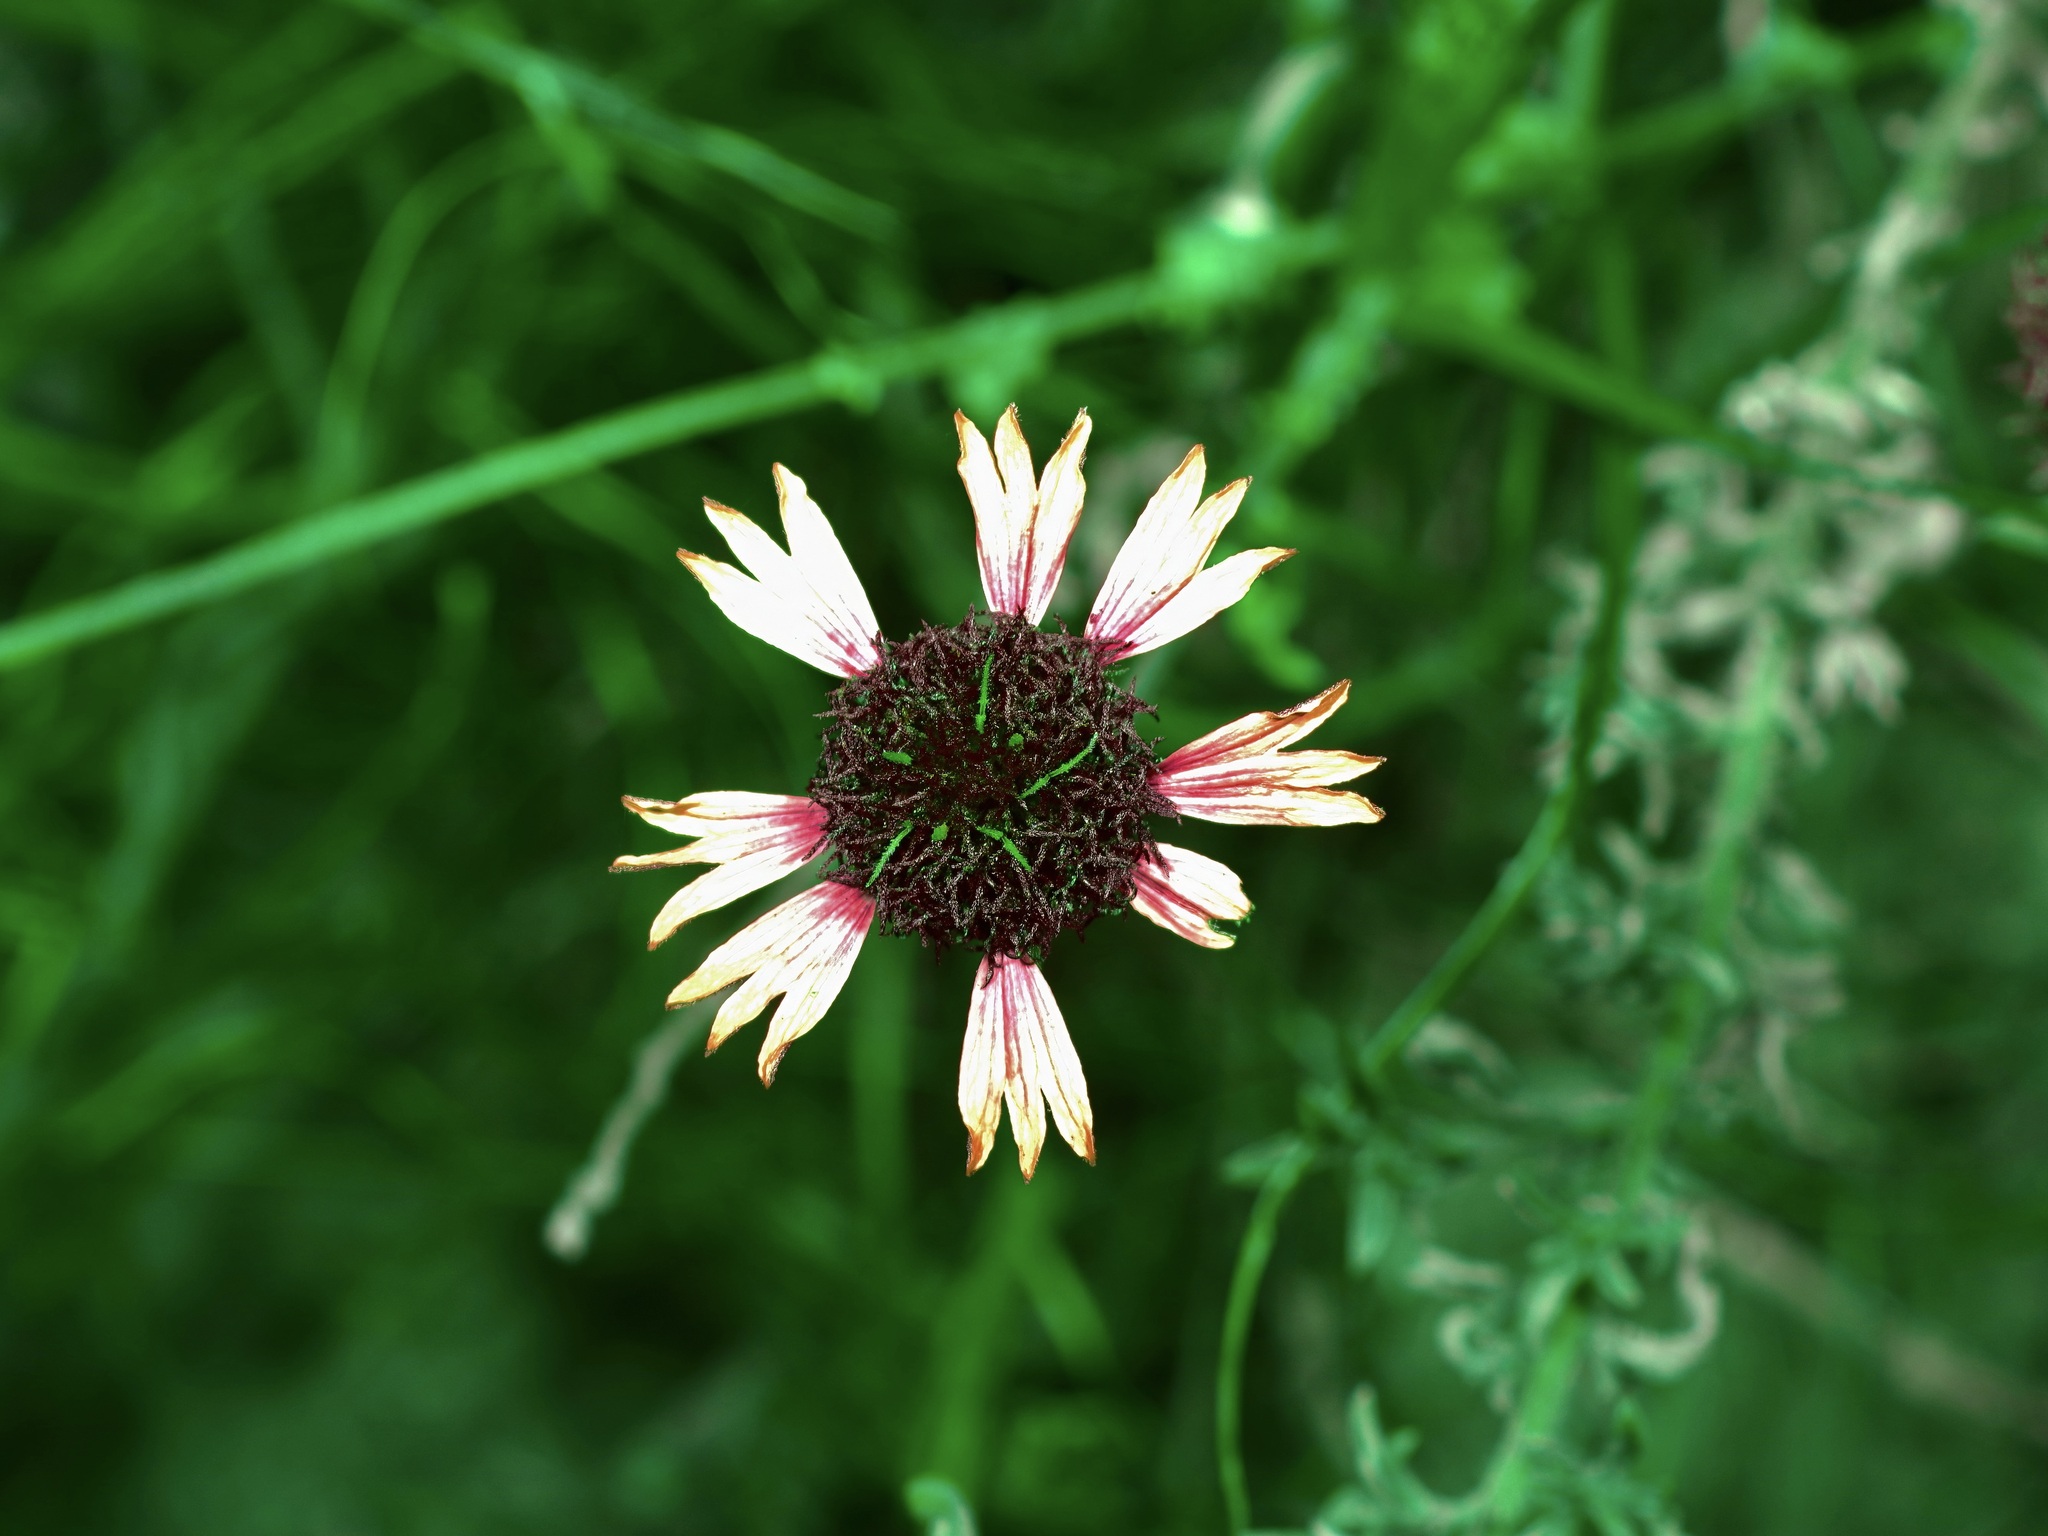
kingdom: Plantae
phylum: Tracheophyta
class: Magnoliopsida
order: Asterales
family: Asteraceae
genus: Gaillardia
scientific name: Gaillardia aestivalis
